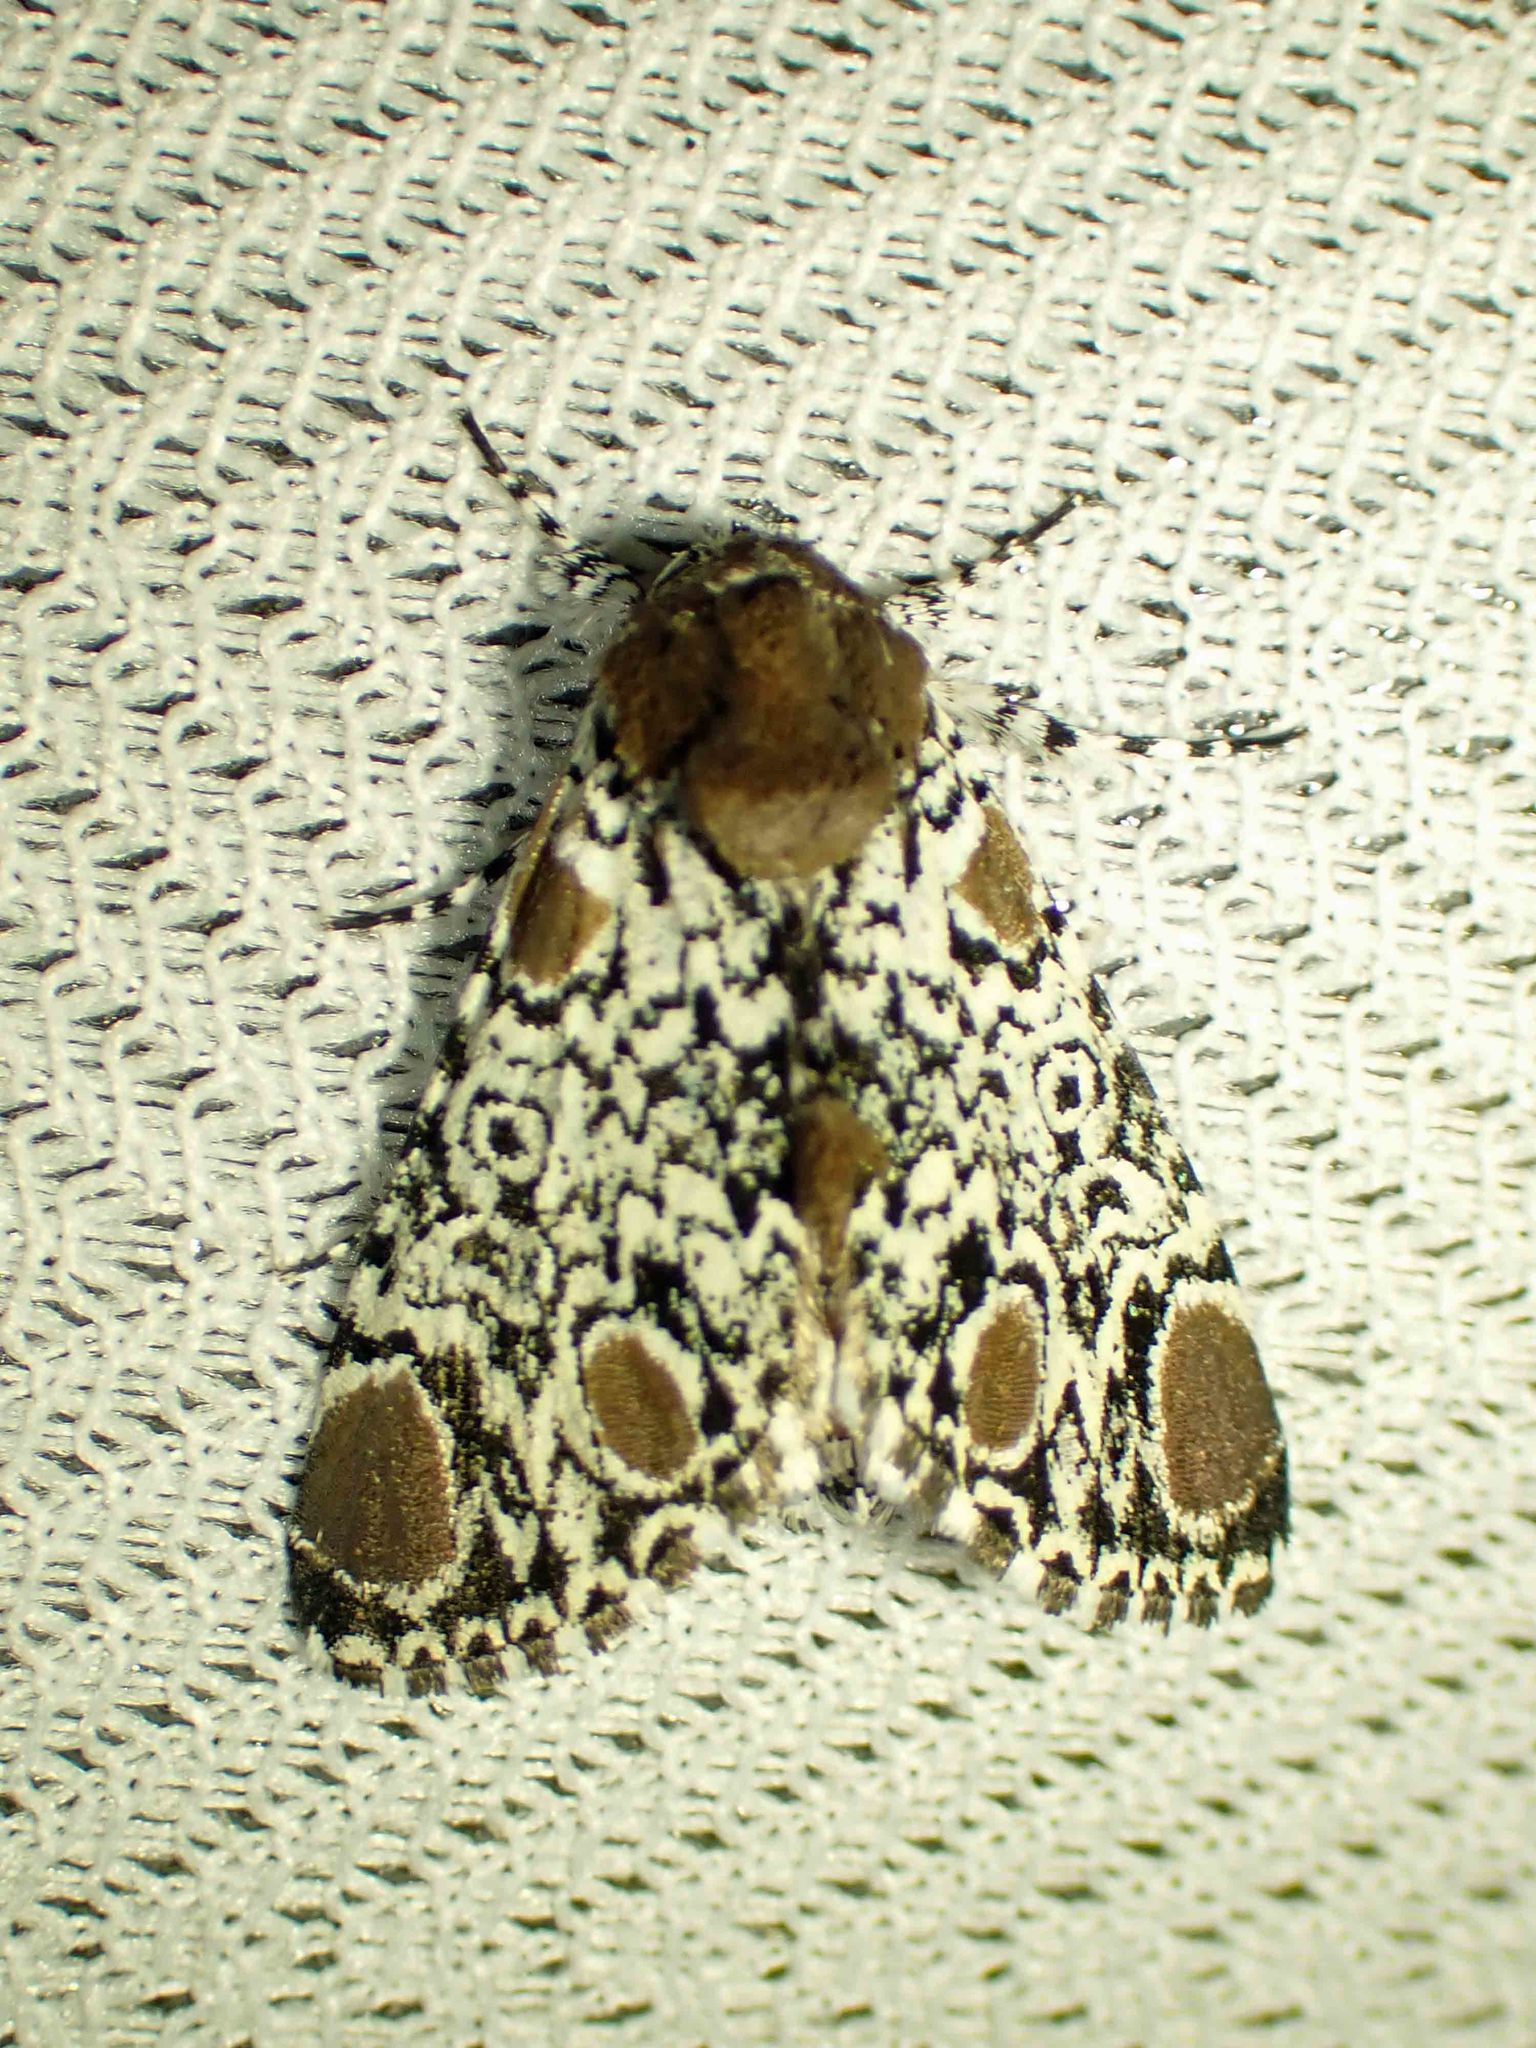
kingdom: Animalia
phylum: Arthropoda
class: Insecta
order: Lepidoptera
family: Noctuidae
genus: Harrisimemna
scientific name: Harrisimemna trisignata
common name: Harris threespot
